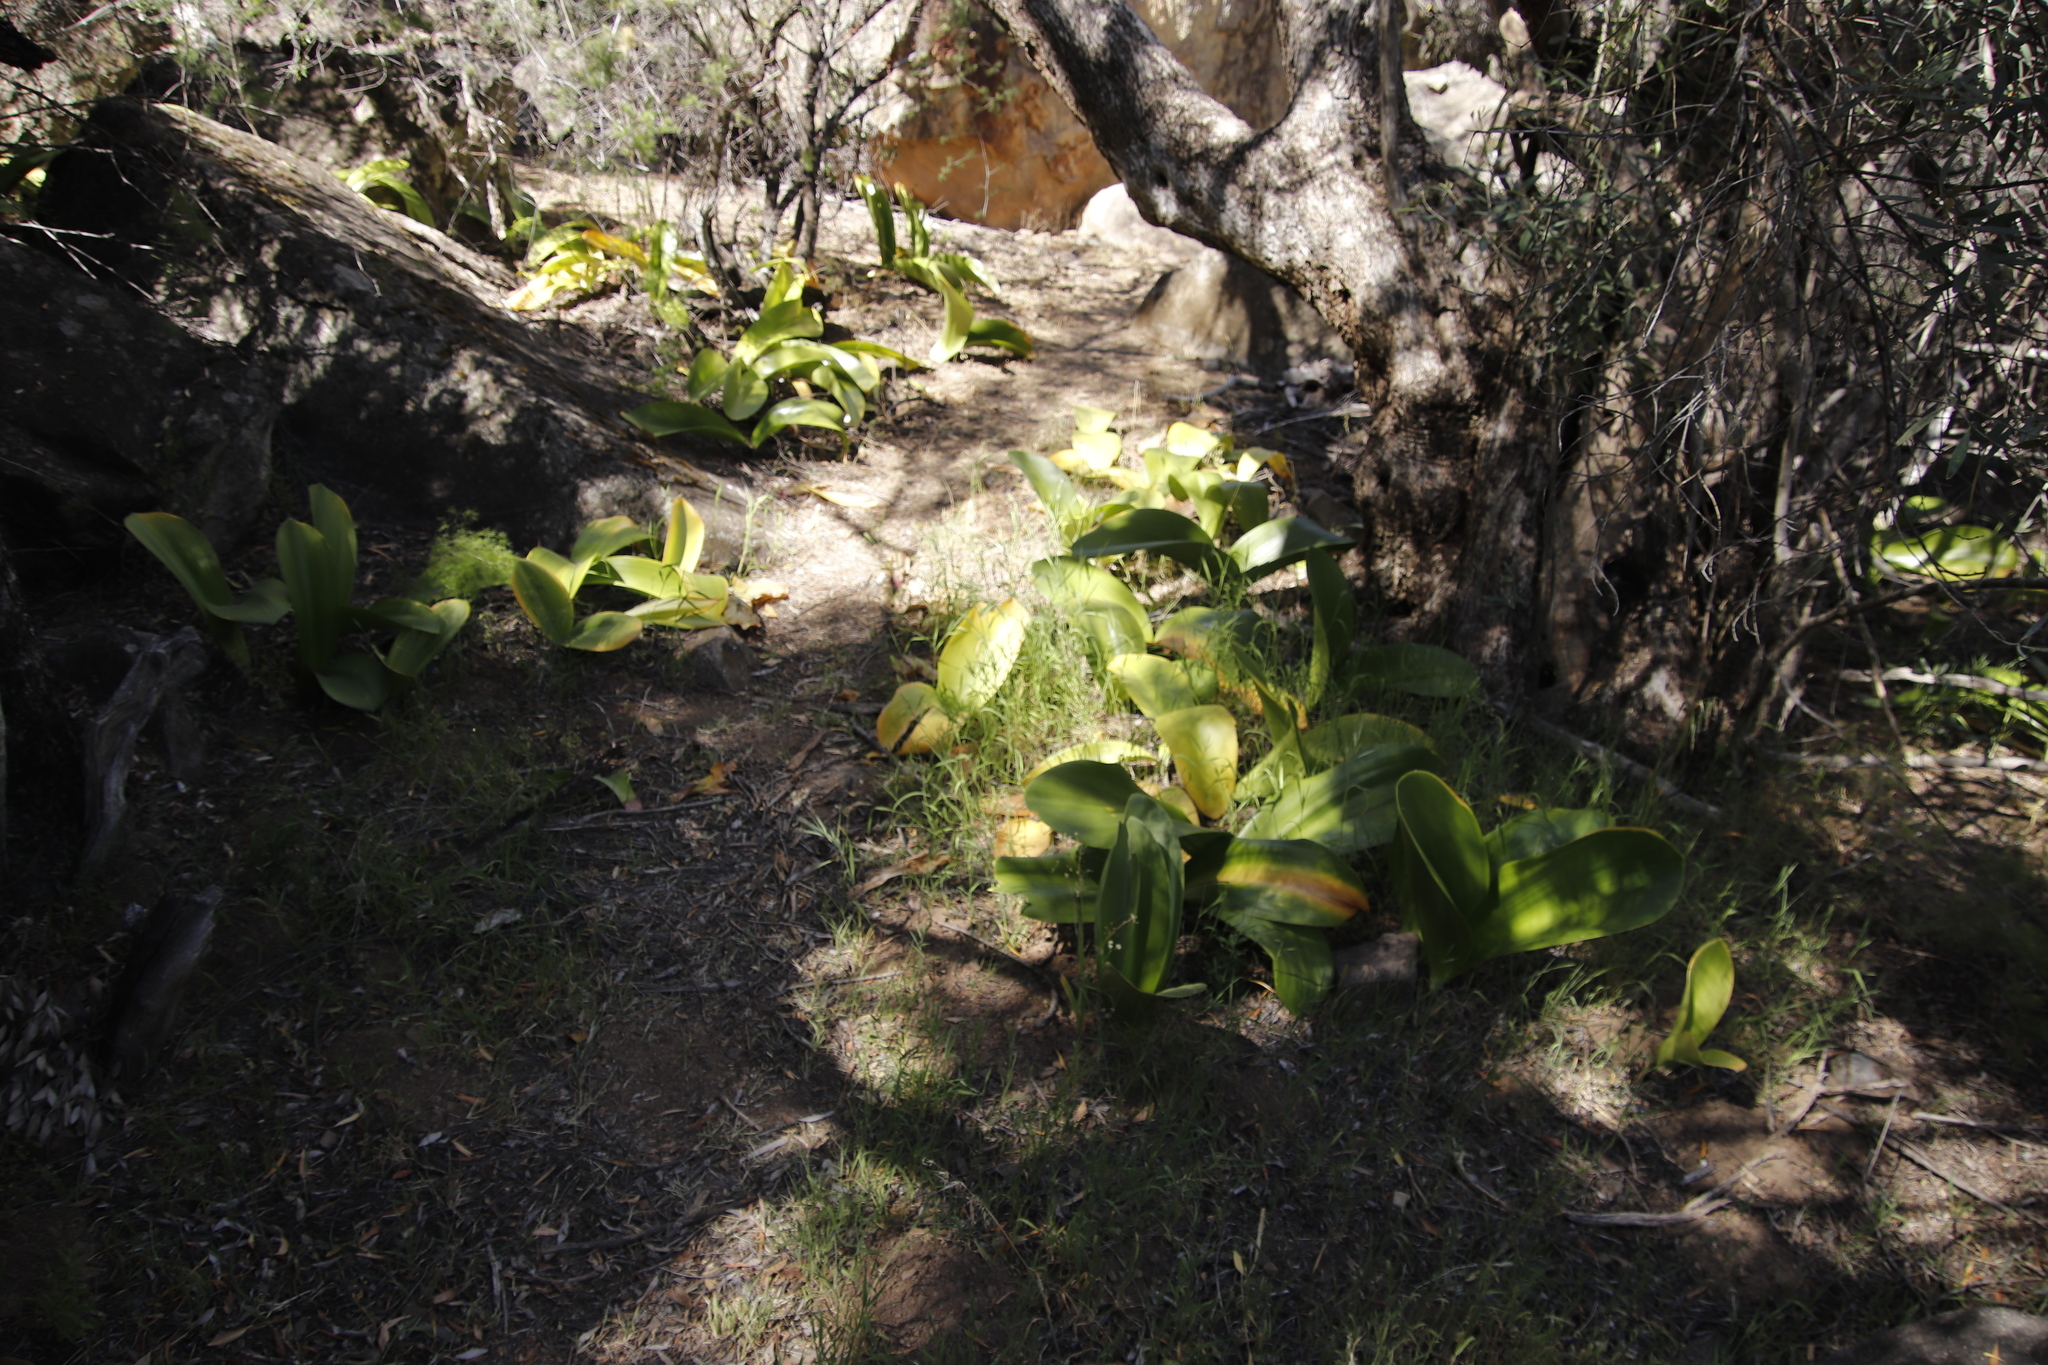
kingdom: Plantae
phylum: Tracheophyta
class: Liliopsida
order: Asparagales
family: Amaryllidaceae
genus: Haemanthus
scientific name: Haemanthus coccineus
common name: Cape-tulip
